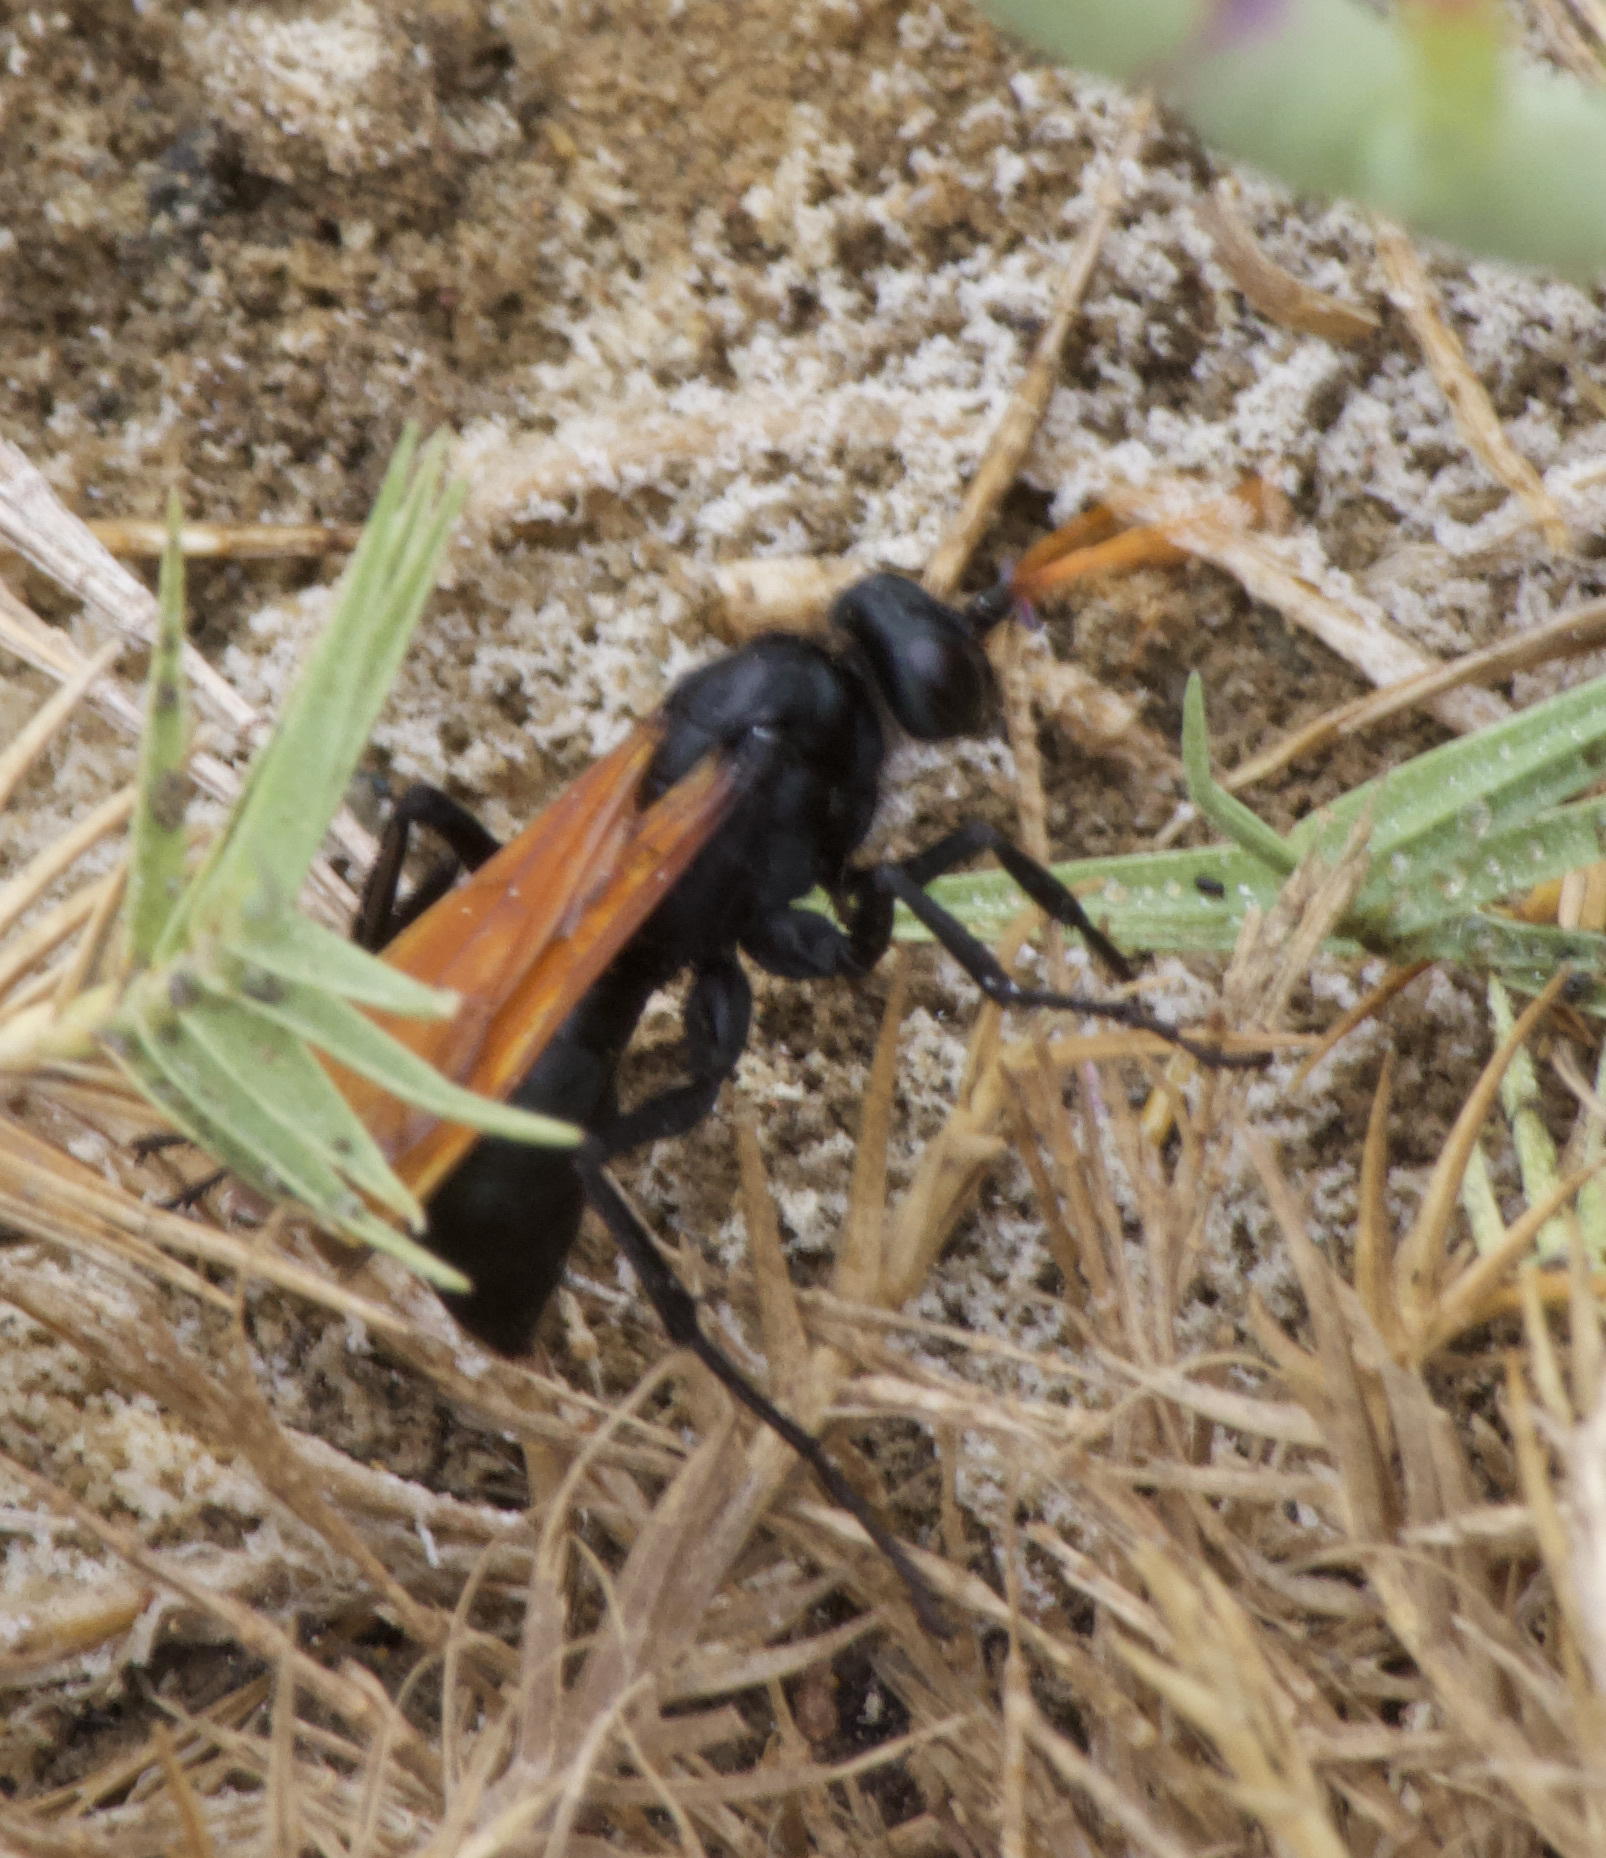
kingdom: Animalia
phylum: Arthropoda
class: Insecta
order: Hymenoptera
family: Pompilidae
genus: Entypus
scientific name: Entypus unifasciatus
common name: Eastern tawny-horned spider wasp
